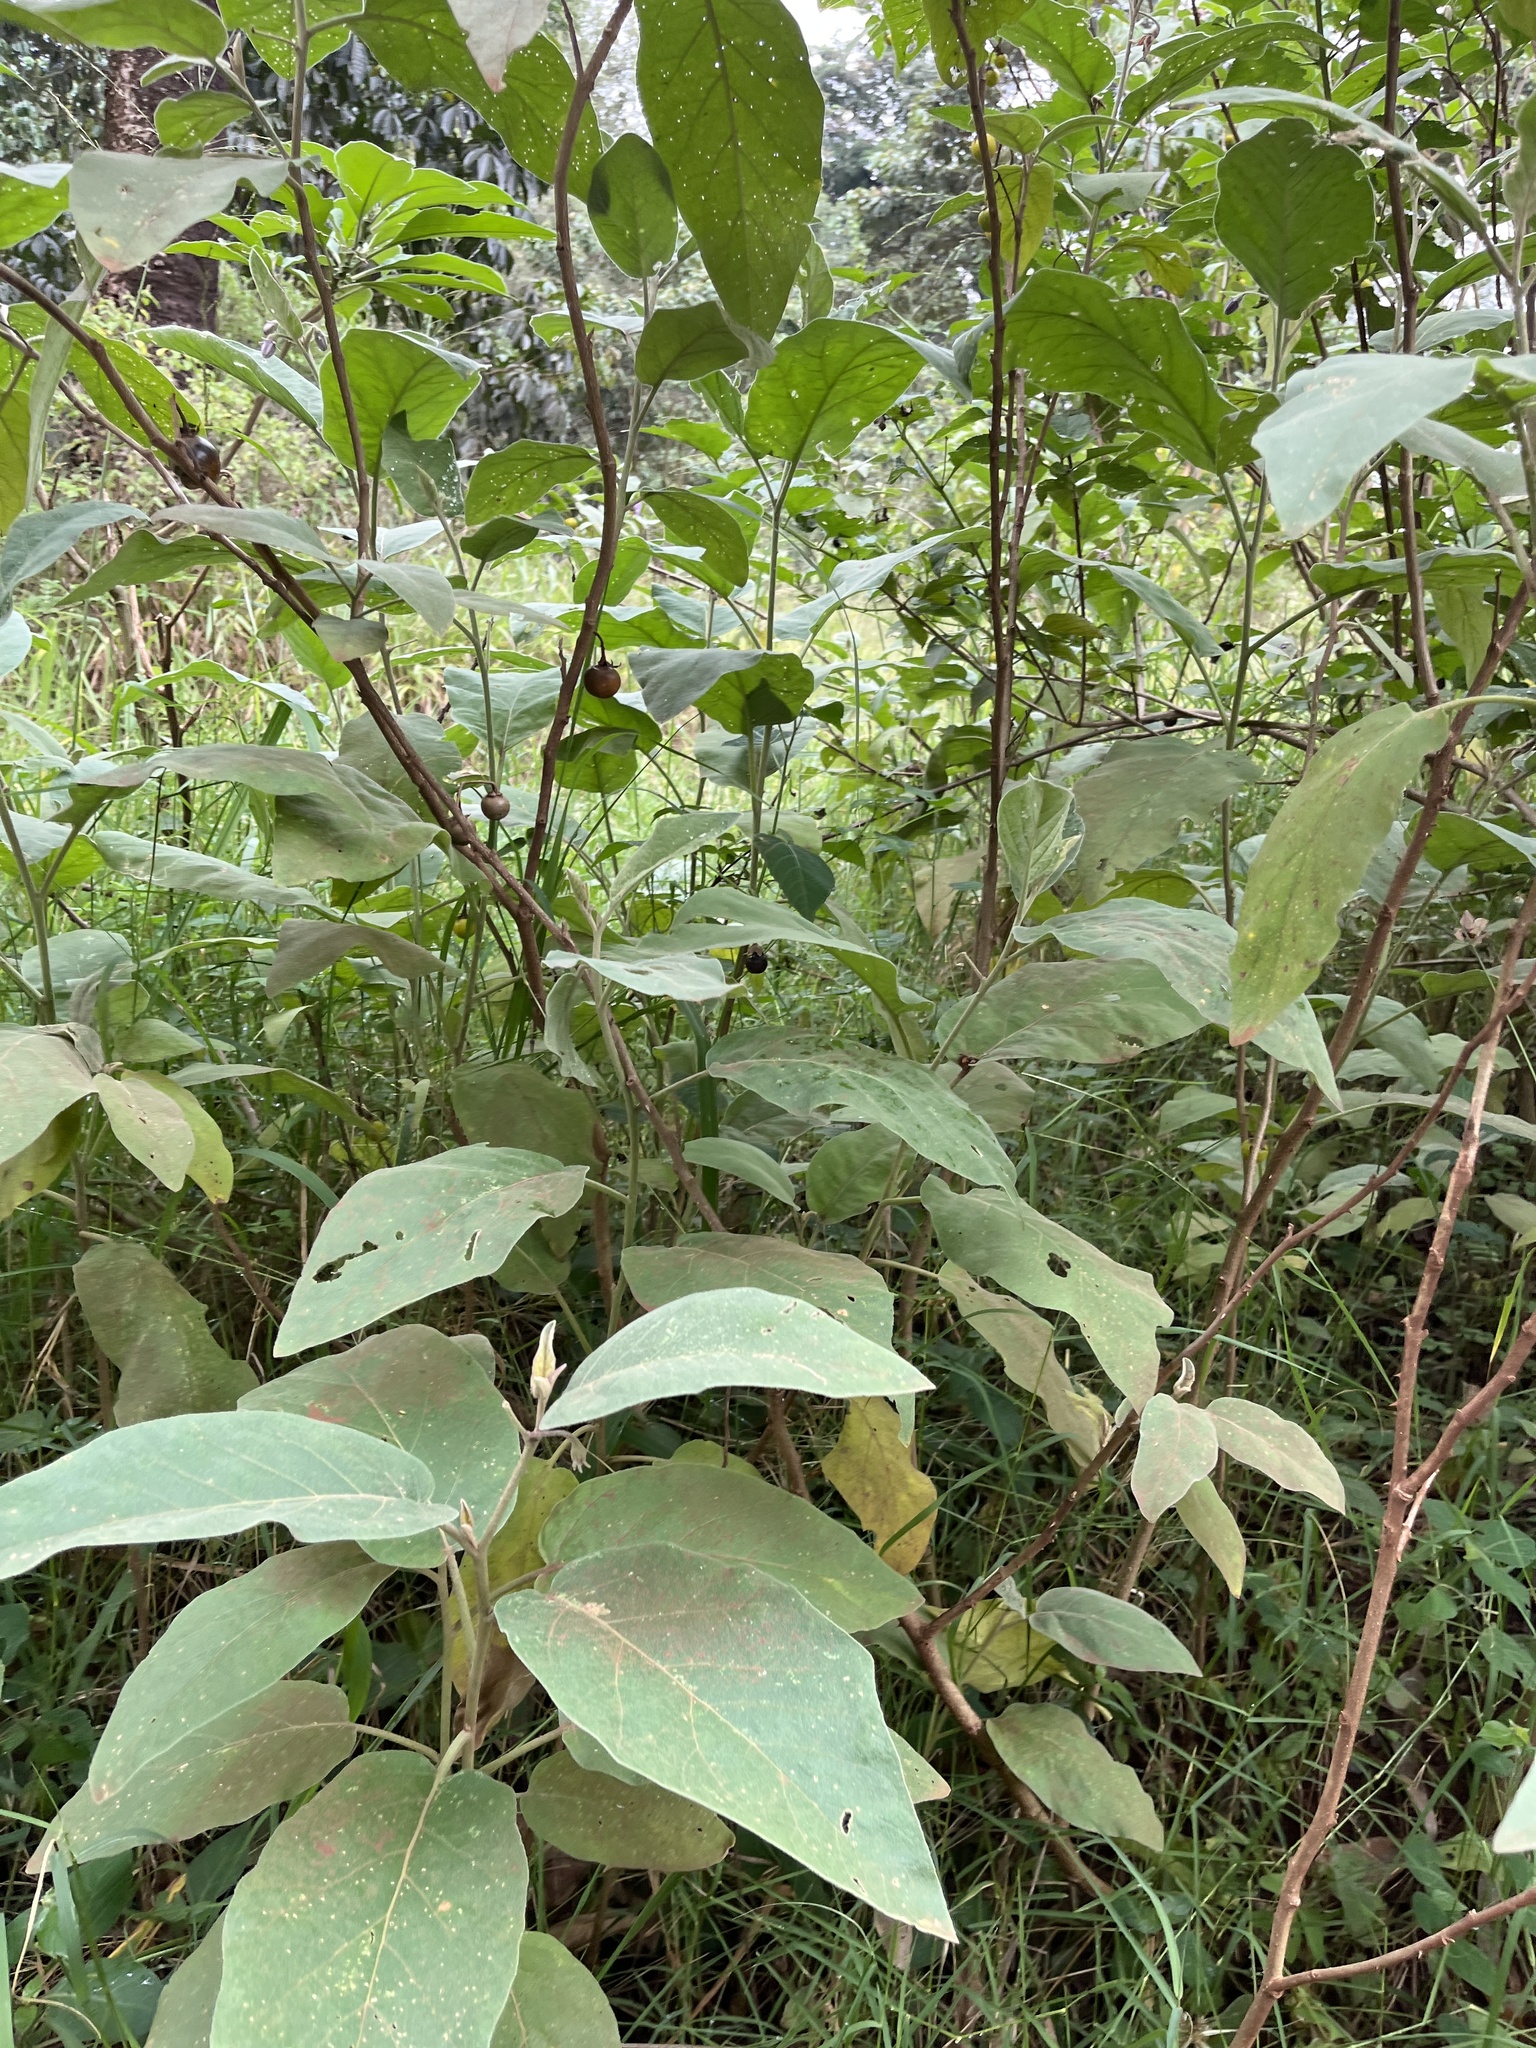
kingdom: Plantae
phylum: Tracheophyta
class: Magnoliopsida
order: Solanales
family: Solanaceae
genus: Solanum
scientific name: Solanum mauritianum
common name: Earleaf nightshade
